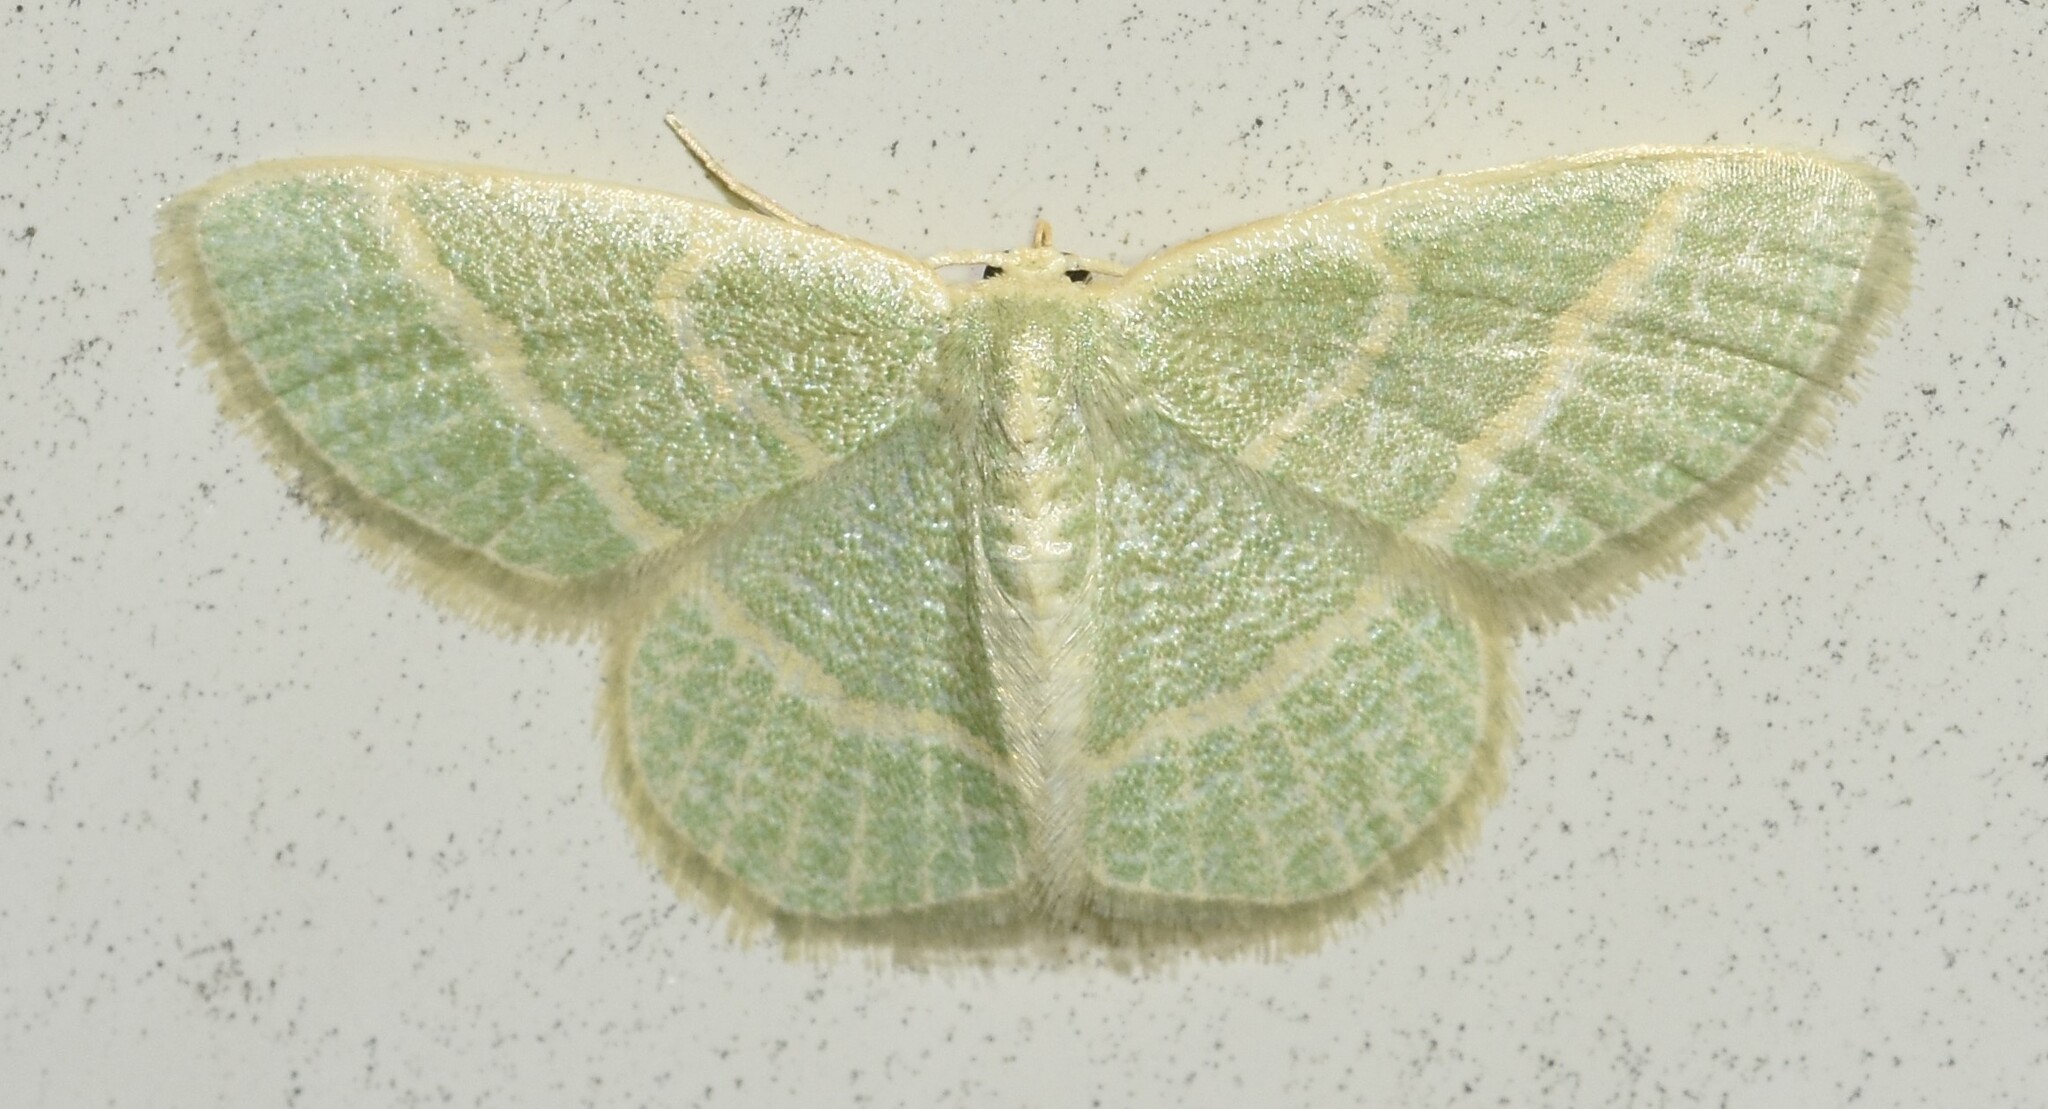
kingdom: Animalia
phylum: Arthropoda
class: Insecta
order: Lepidoptera
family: Geometridae
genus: Chlorochlamys
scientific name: Chlorochlamys chloroleucaria
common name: Blackberry looper
